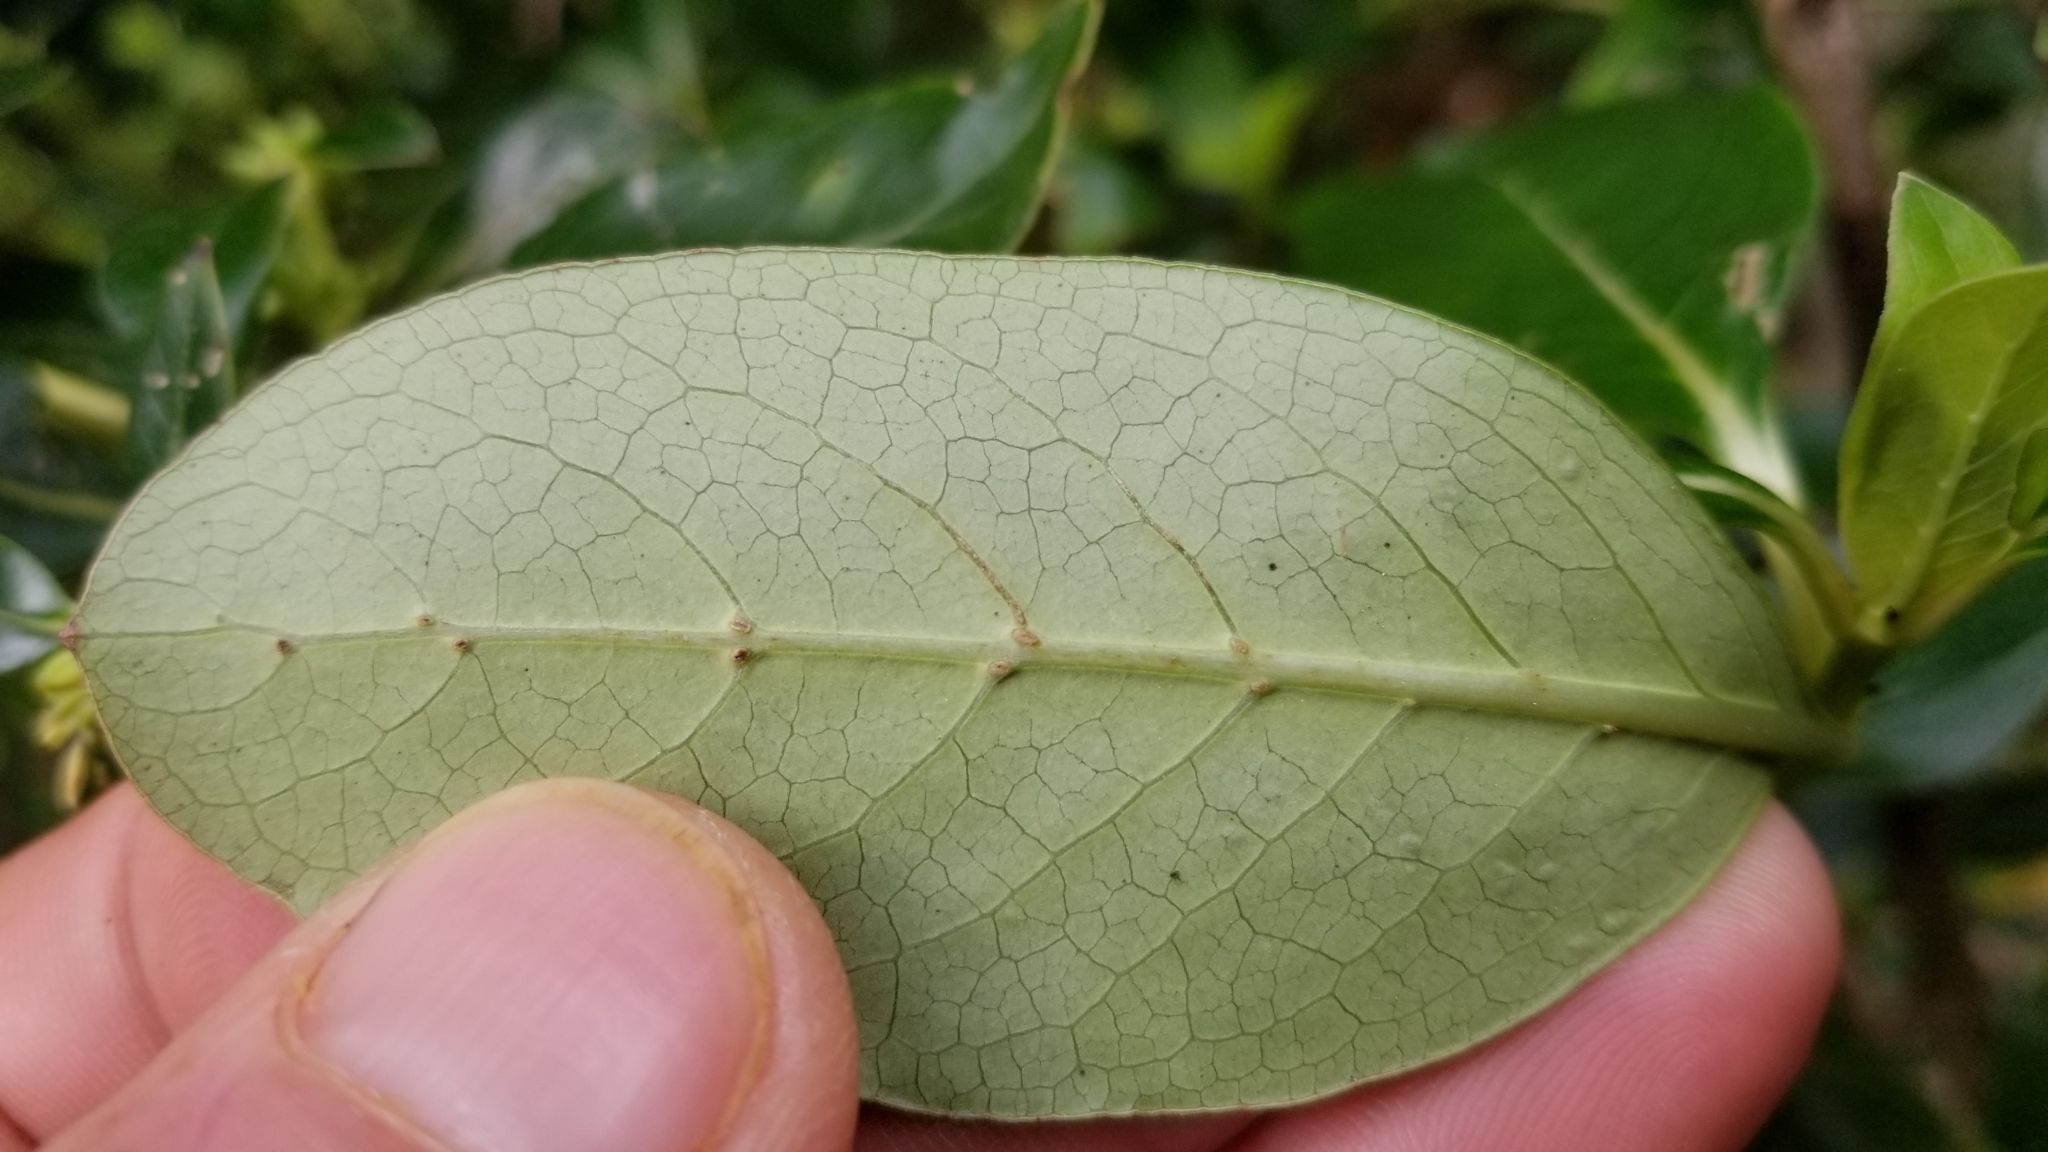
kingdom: Plantae
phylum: Tracheophyta
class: Magnoliopsida
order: Gentianales
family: Rubiaceae
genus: Coprosma
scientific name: Coprosma robusta
